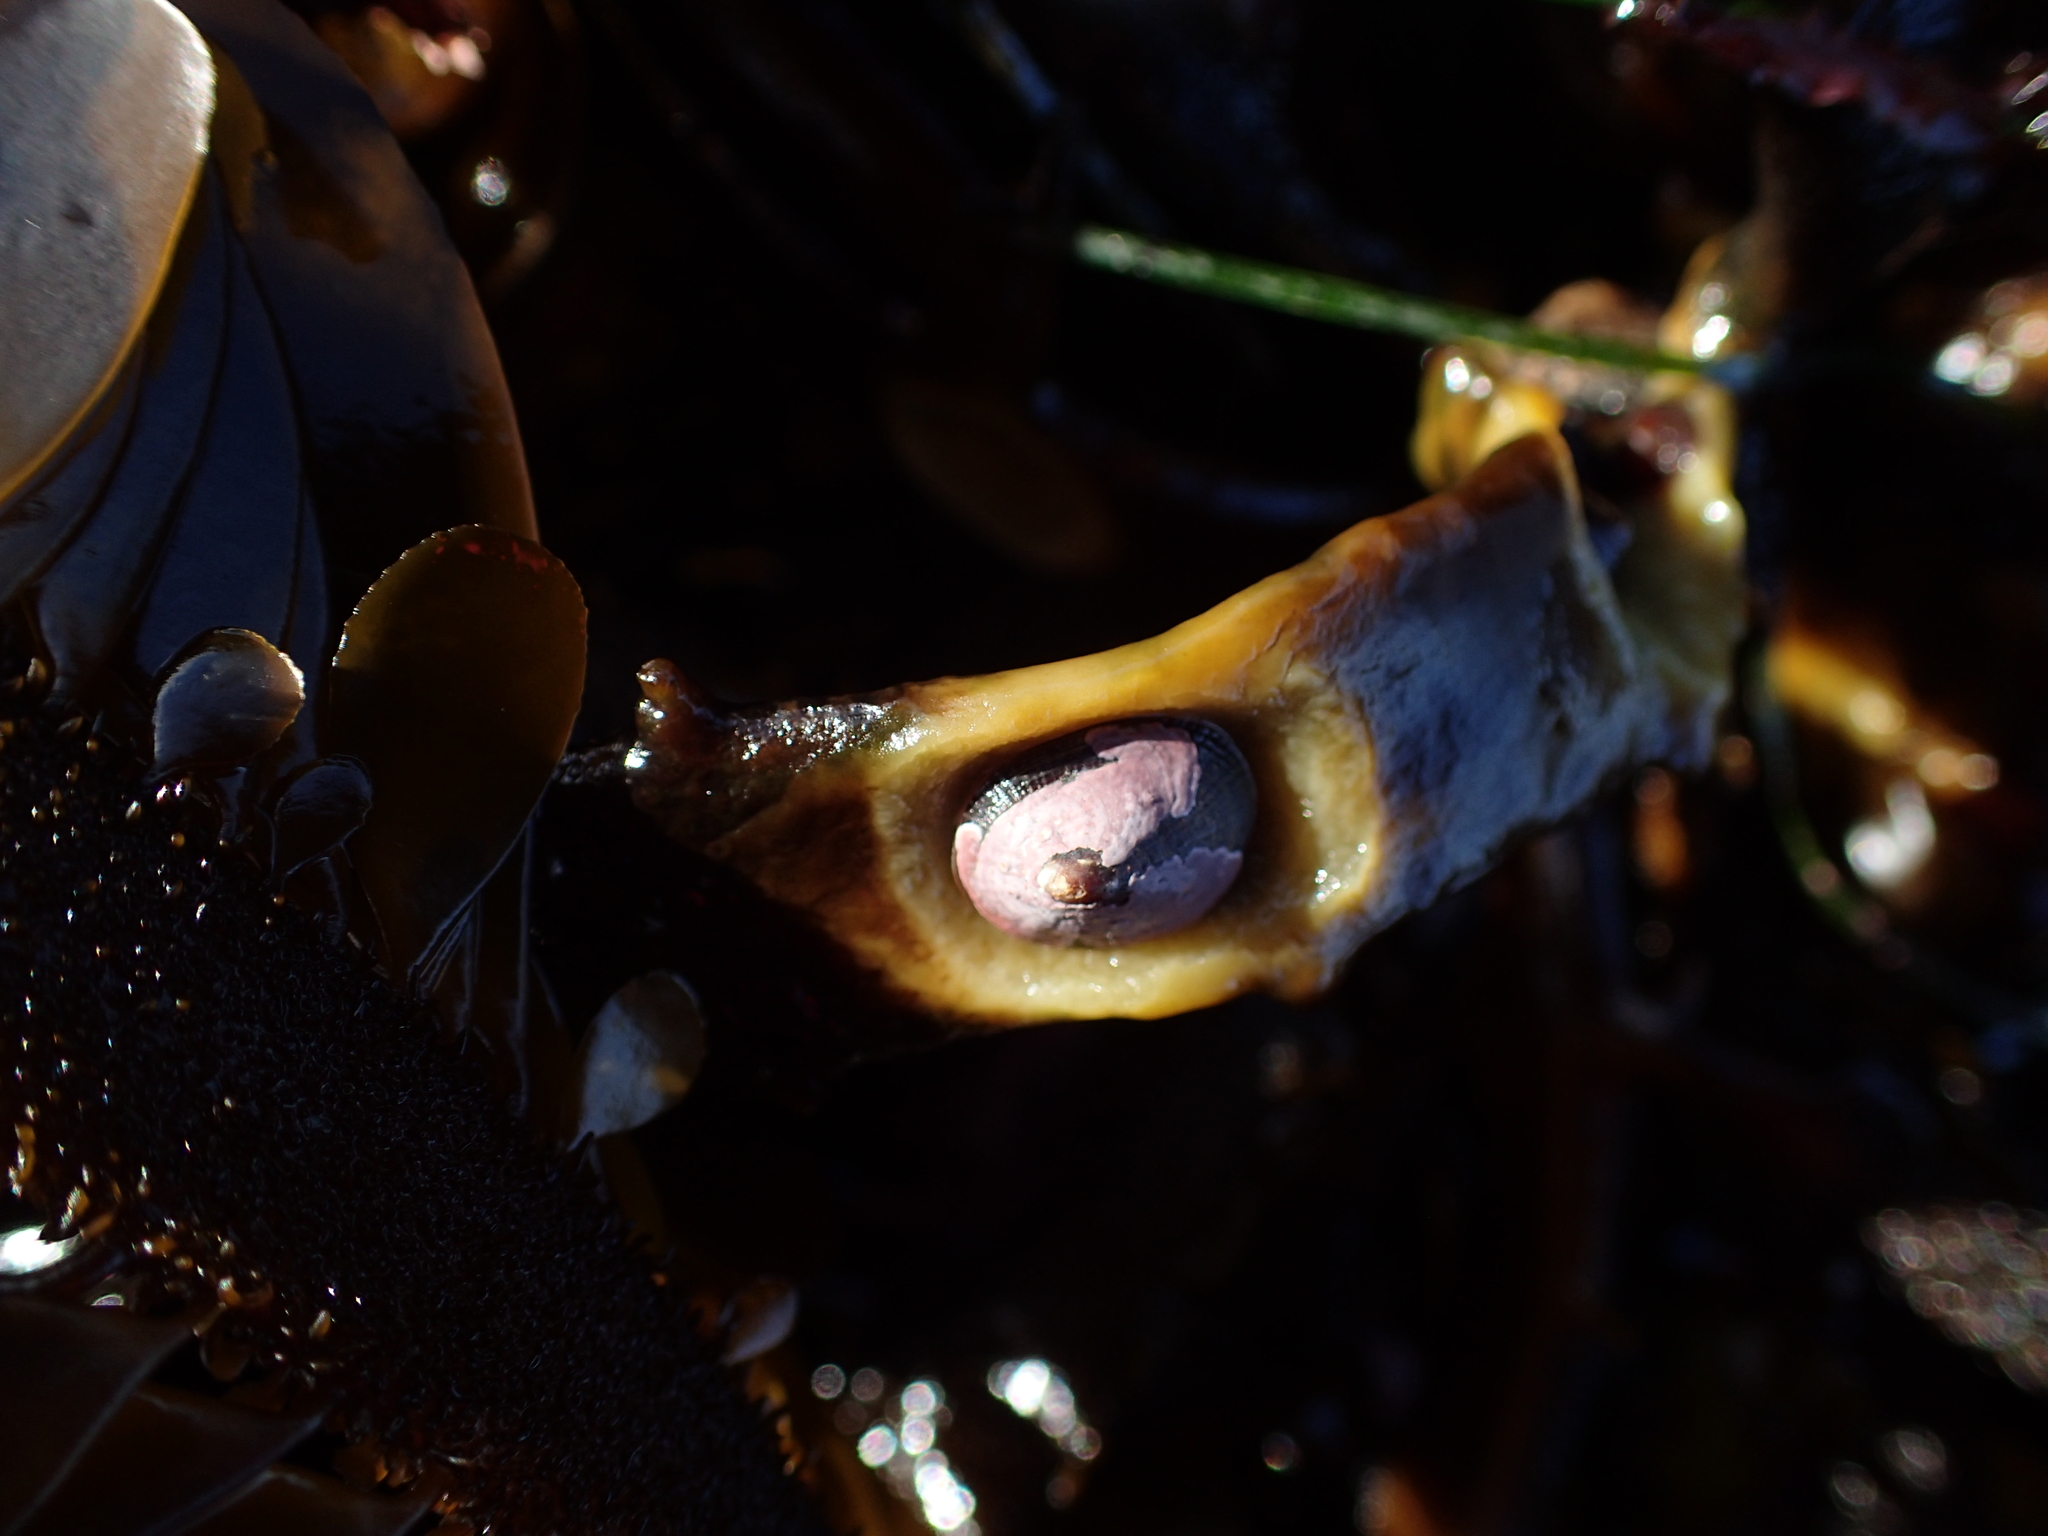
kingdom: Animalia
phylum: Mollusca
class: Gastropoda
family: Lottiidae
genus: Discurria
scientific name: Discurria insessa
